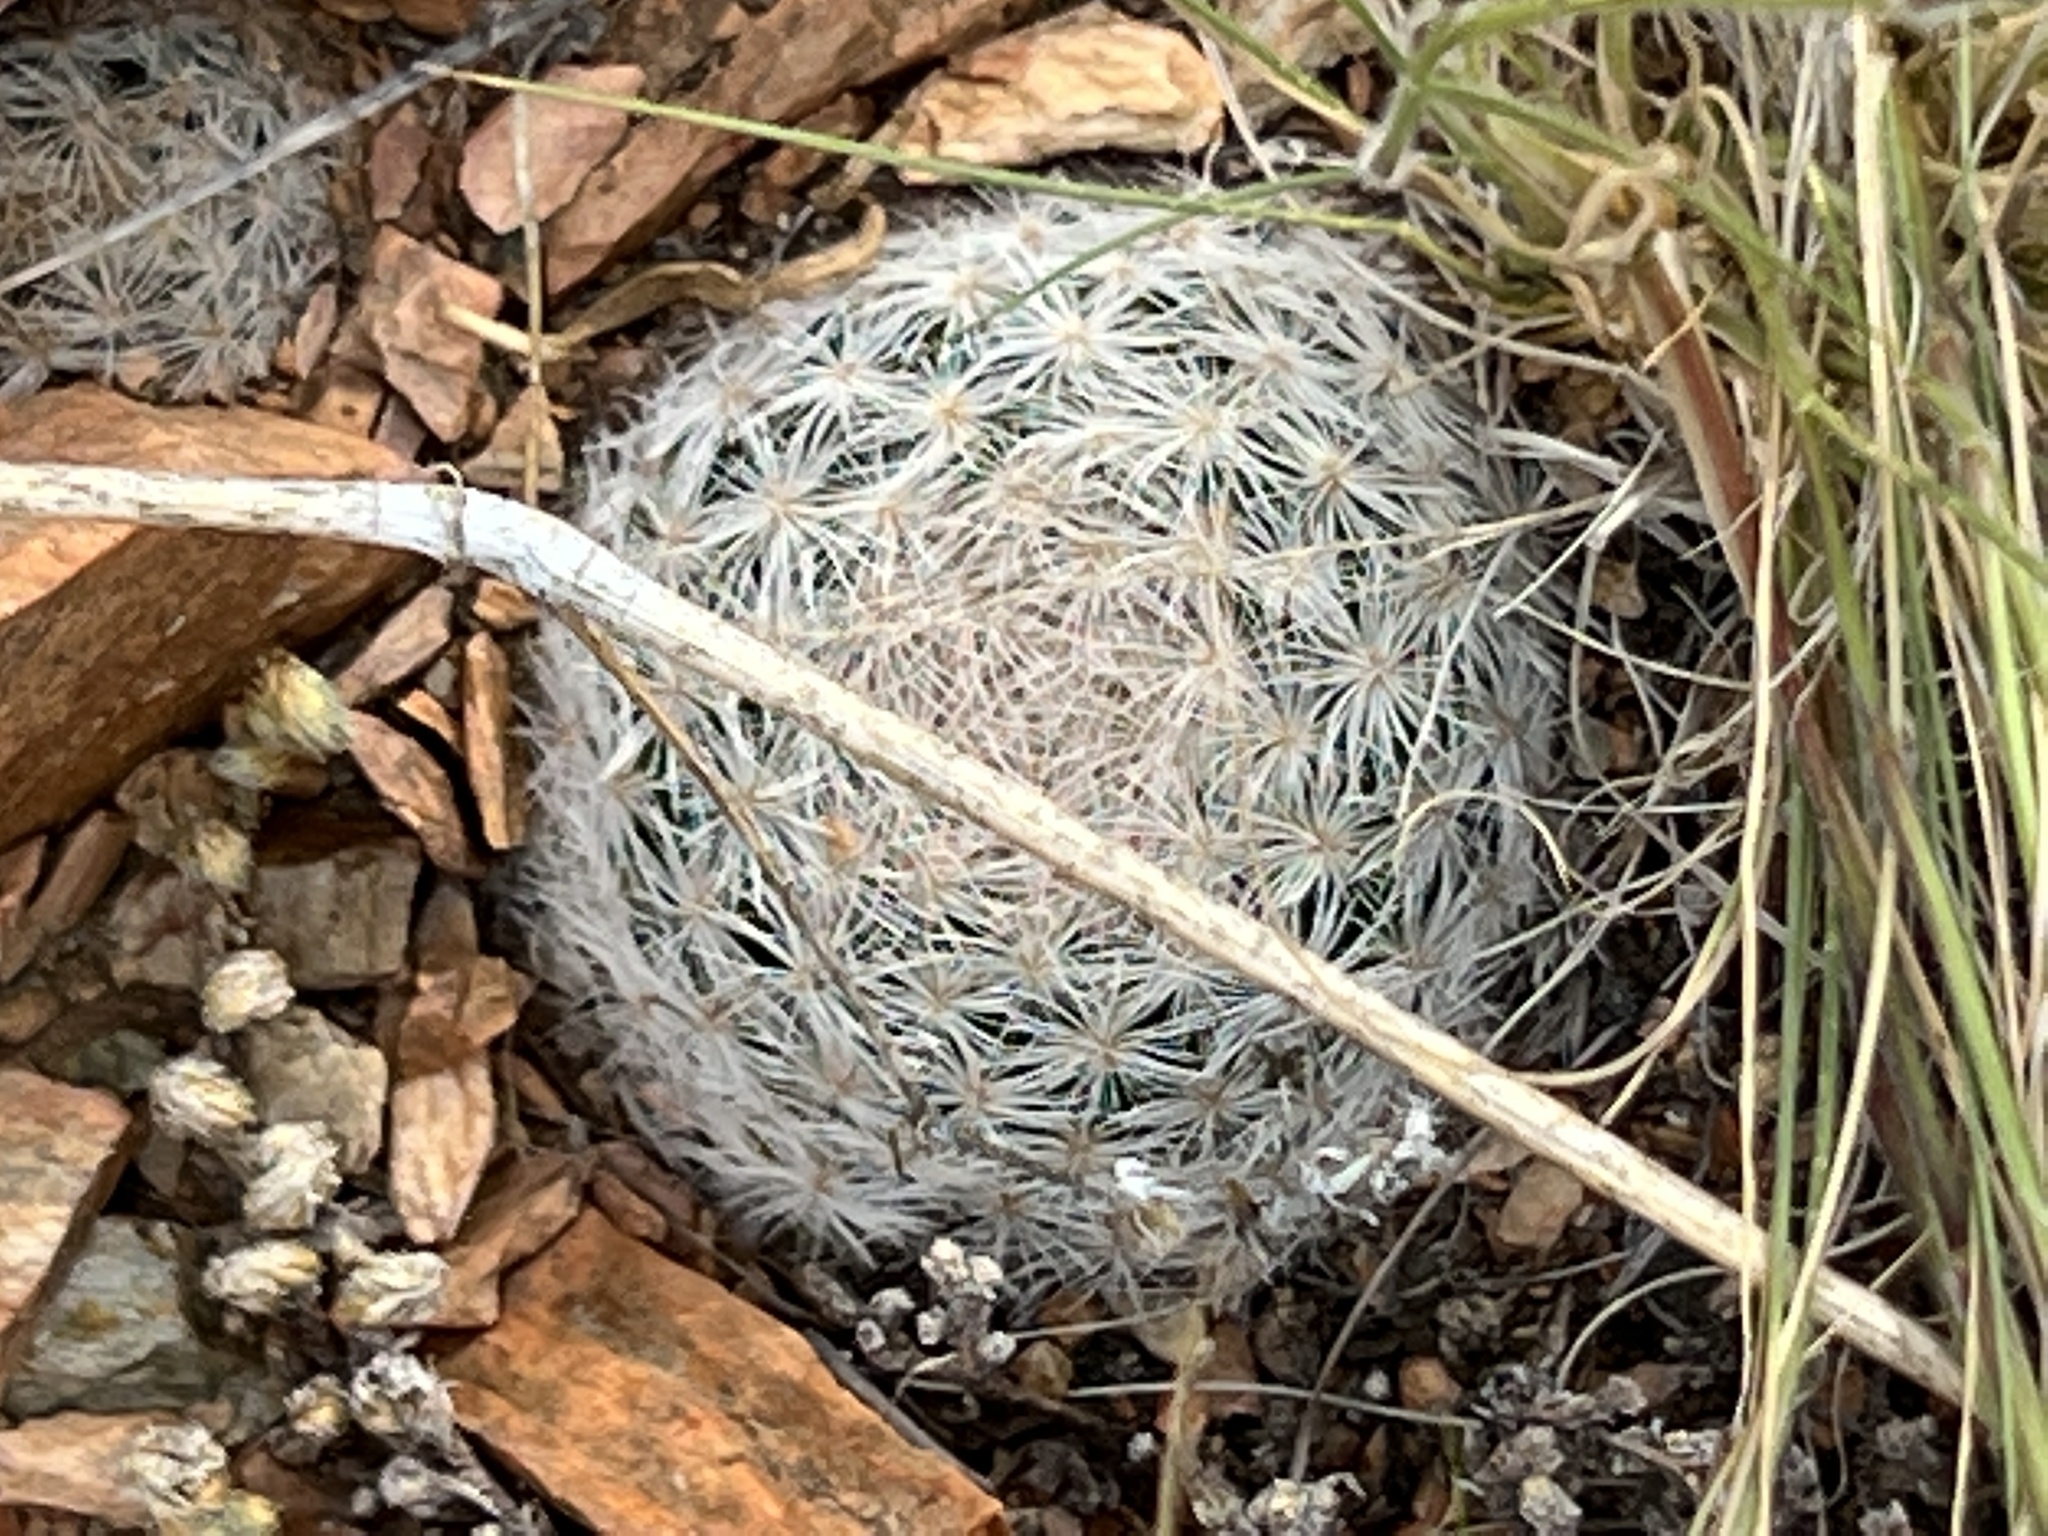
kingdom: Plantae
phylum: Tracheophyta
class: Magnoliopsida
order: Caryophyllales
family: Cactaceae
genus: Mammillaria
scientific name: Mammillaria lasiacantha
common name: Lace-spine nipple cactus
